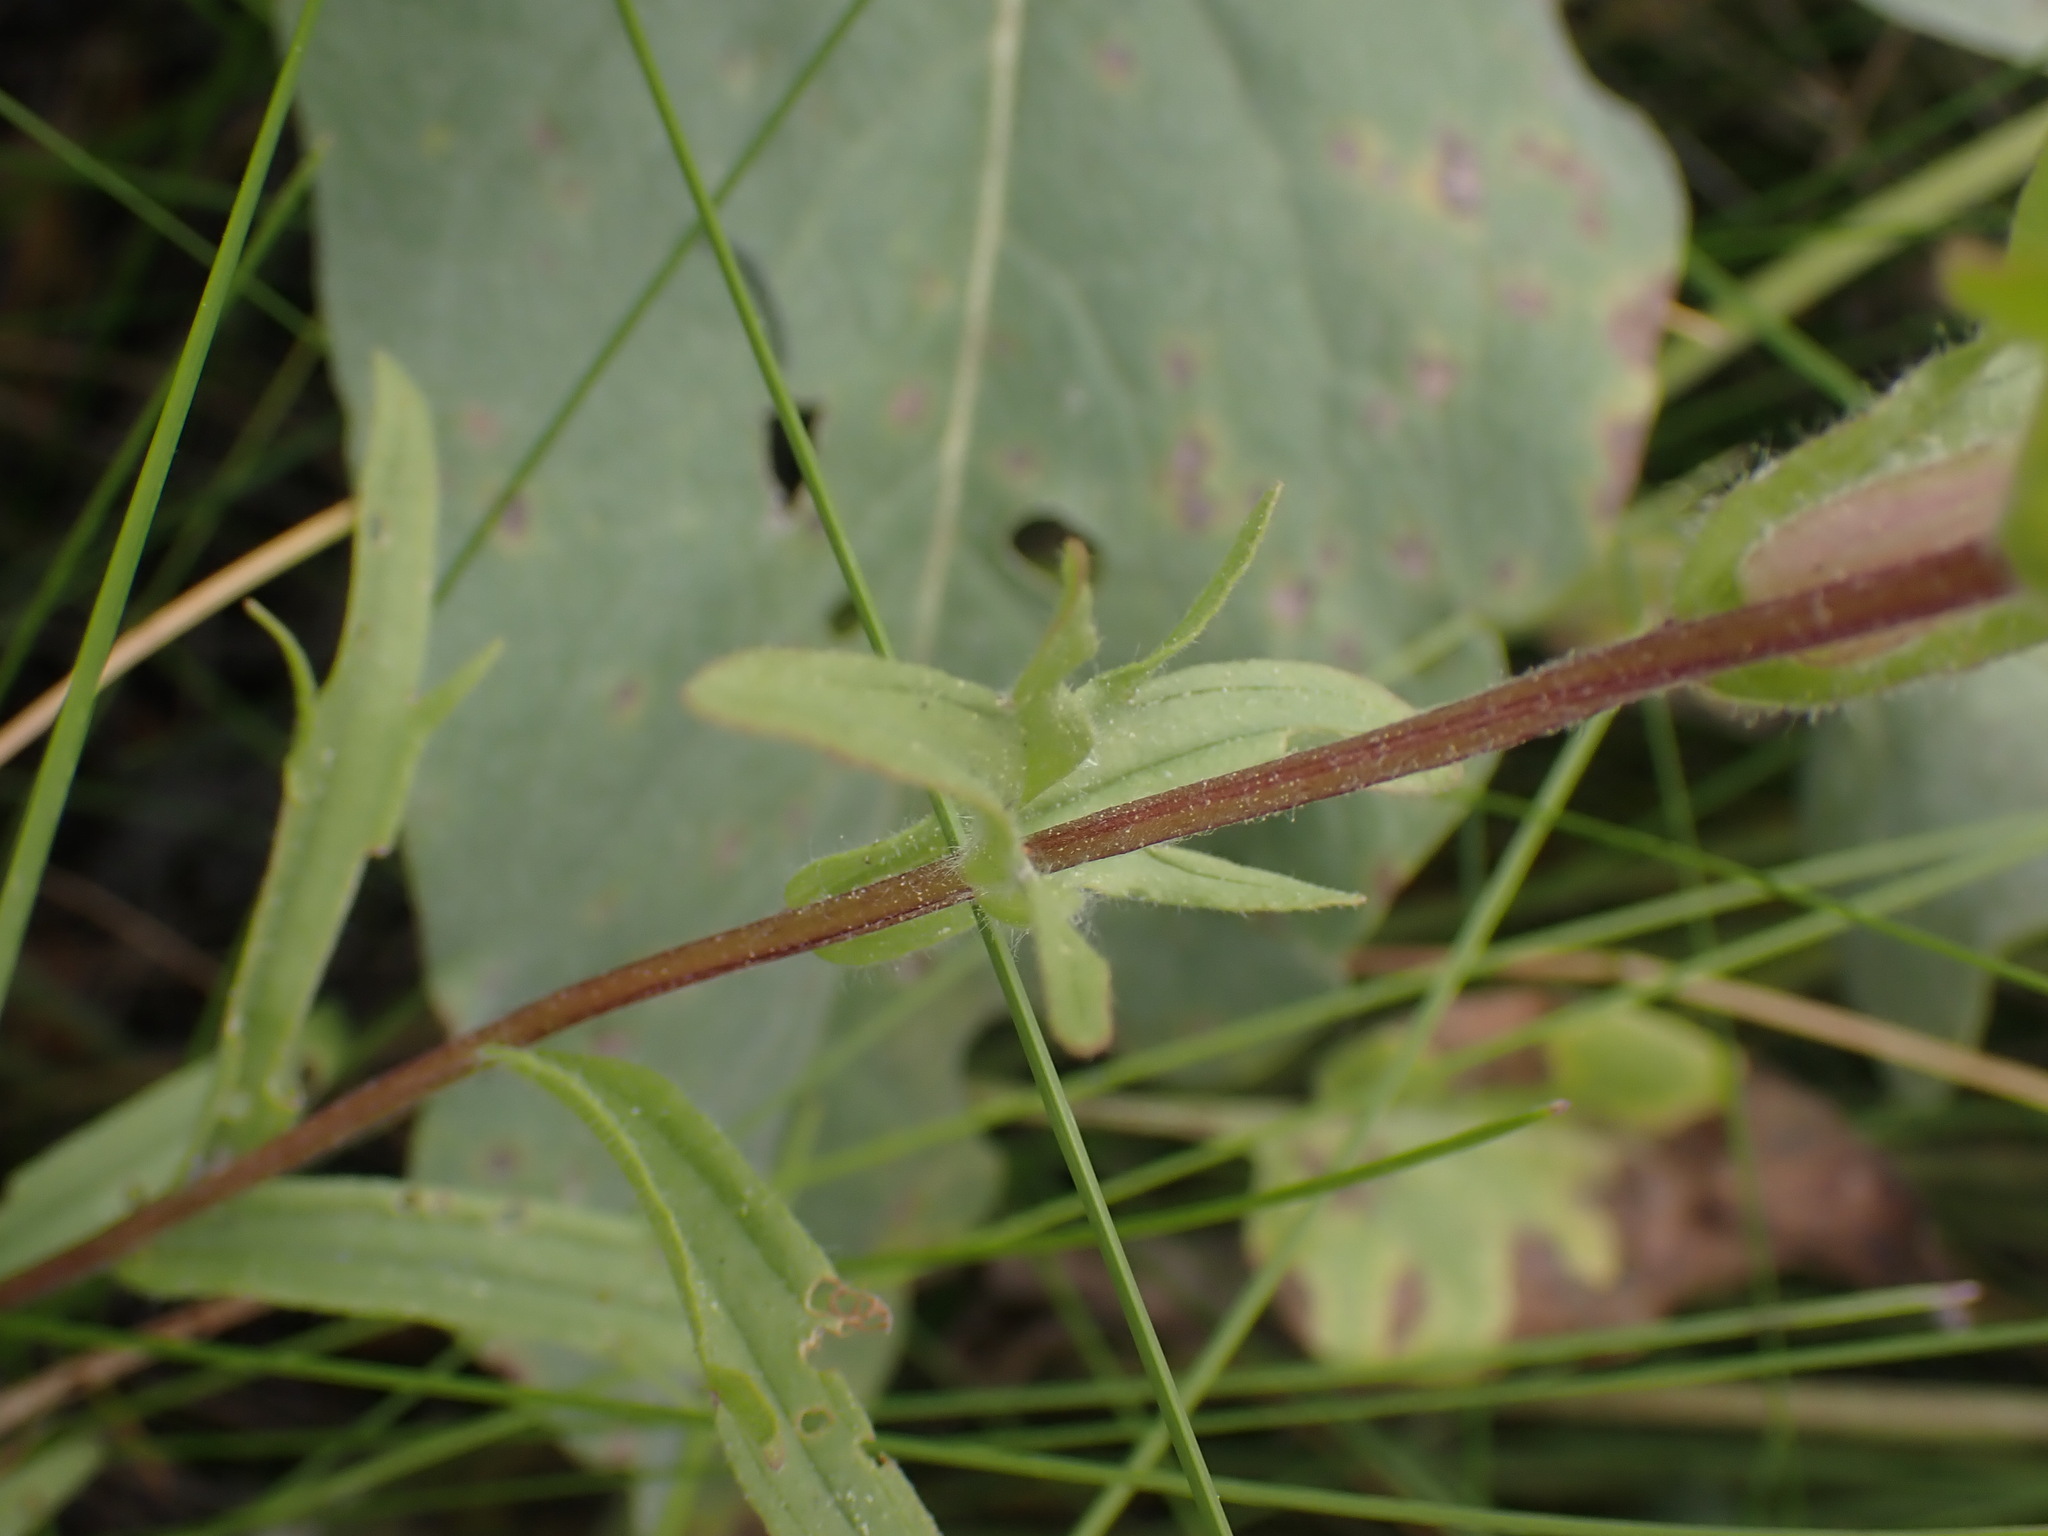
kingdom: Plantae
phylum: Tracheophyta
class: Magnoliopsida
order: Lamiales
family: Orobanchaceae
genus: Castilleja
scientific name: Castilleja hispida
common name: Bristly paintbrush
